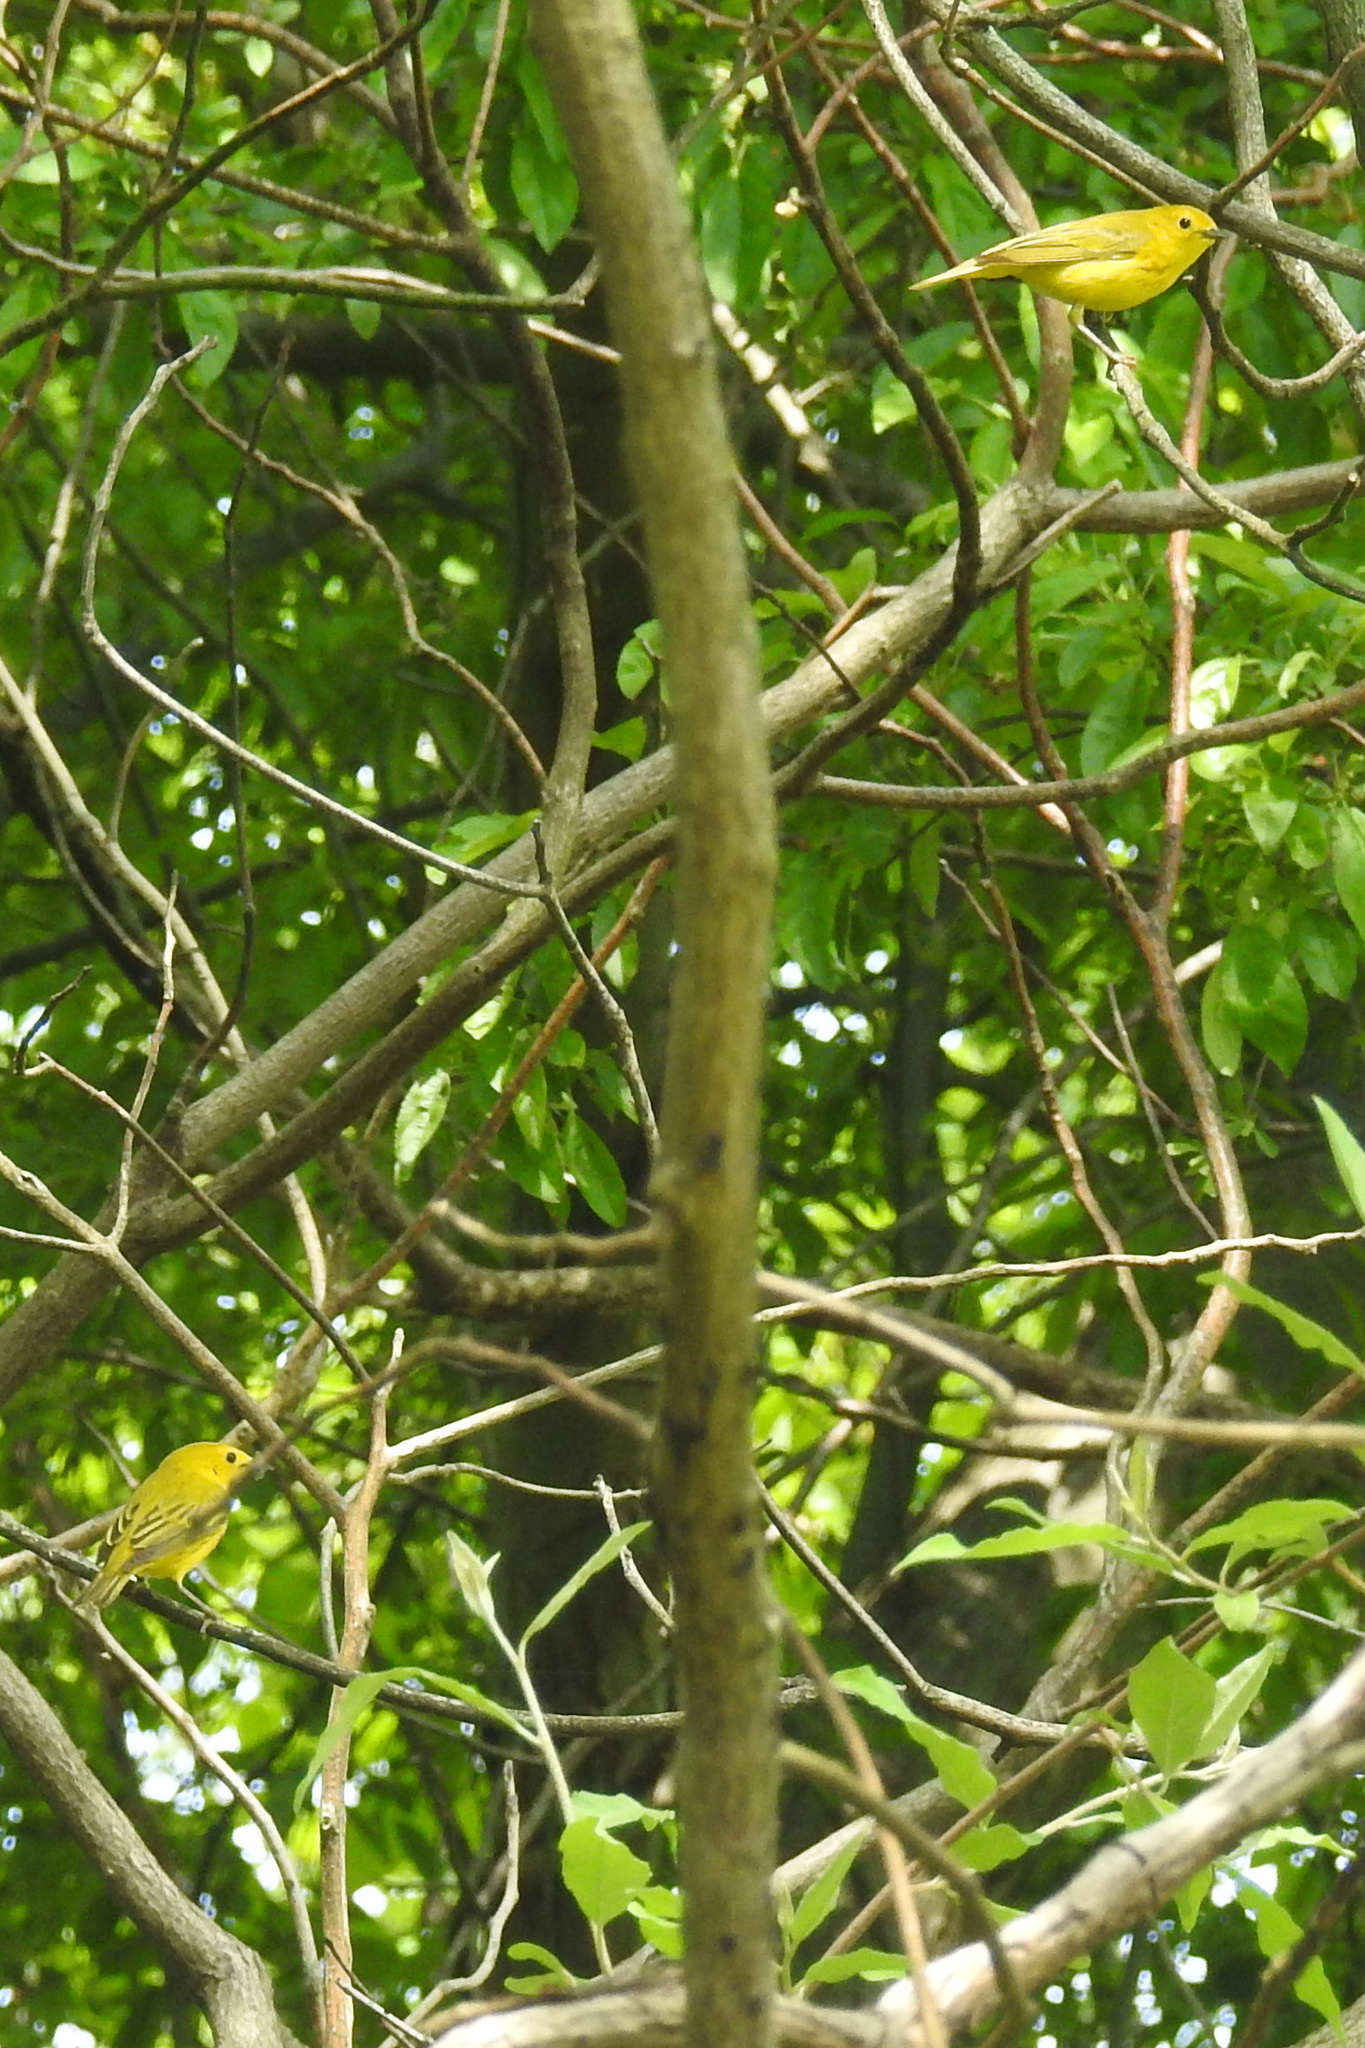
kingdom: Animalia
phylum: Chordata
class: Aves
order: Passeriformes
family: Parulidae
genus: Setophaga
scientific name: Setophaga petechia
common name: Yellow warbler
